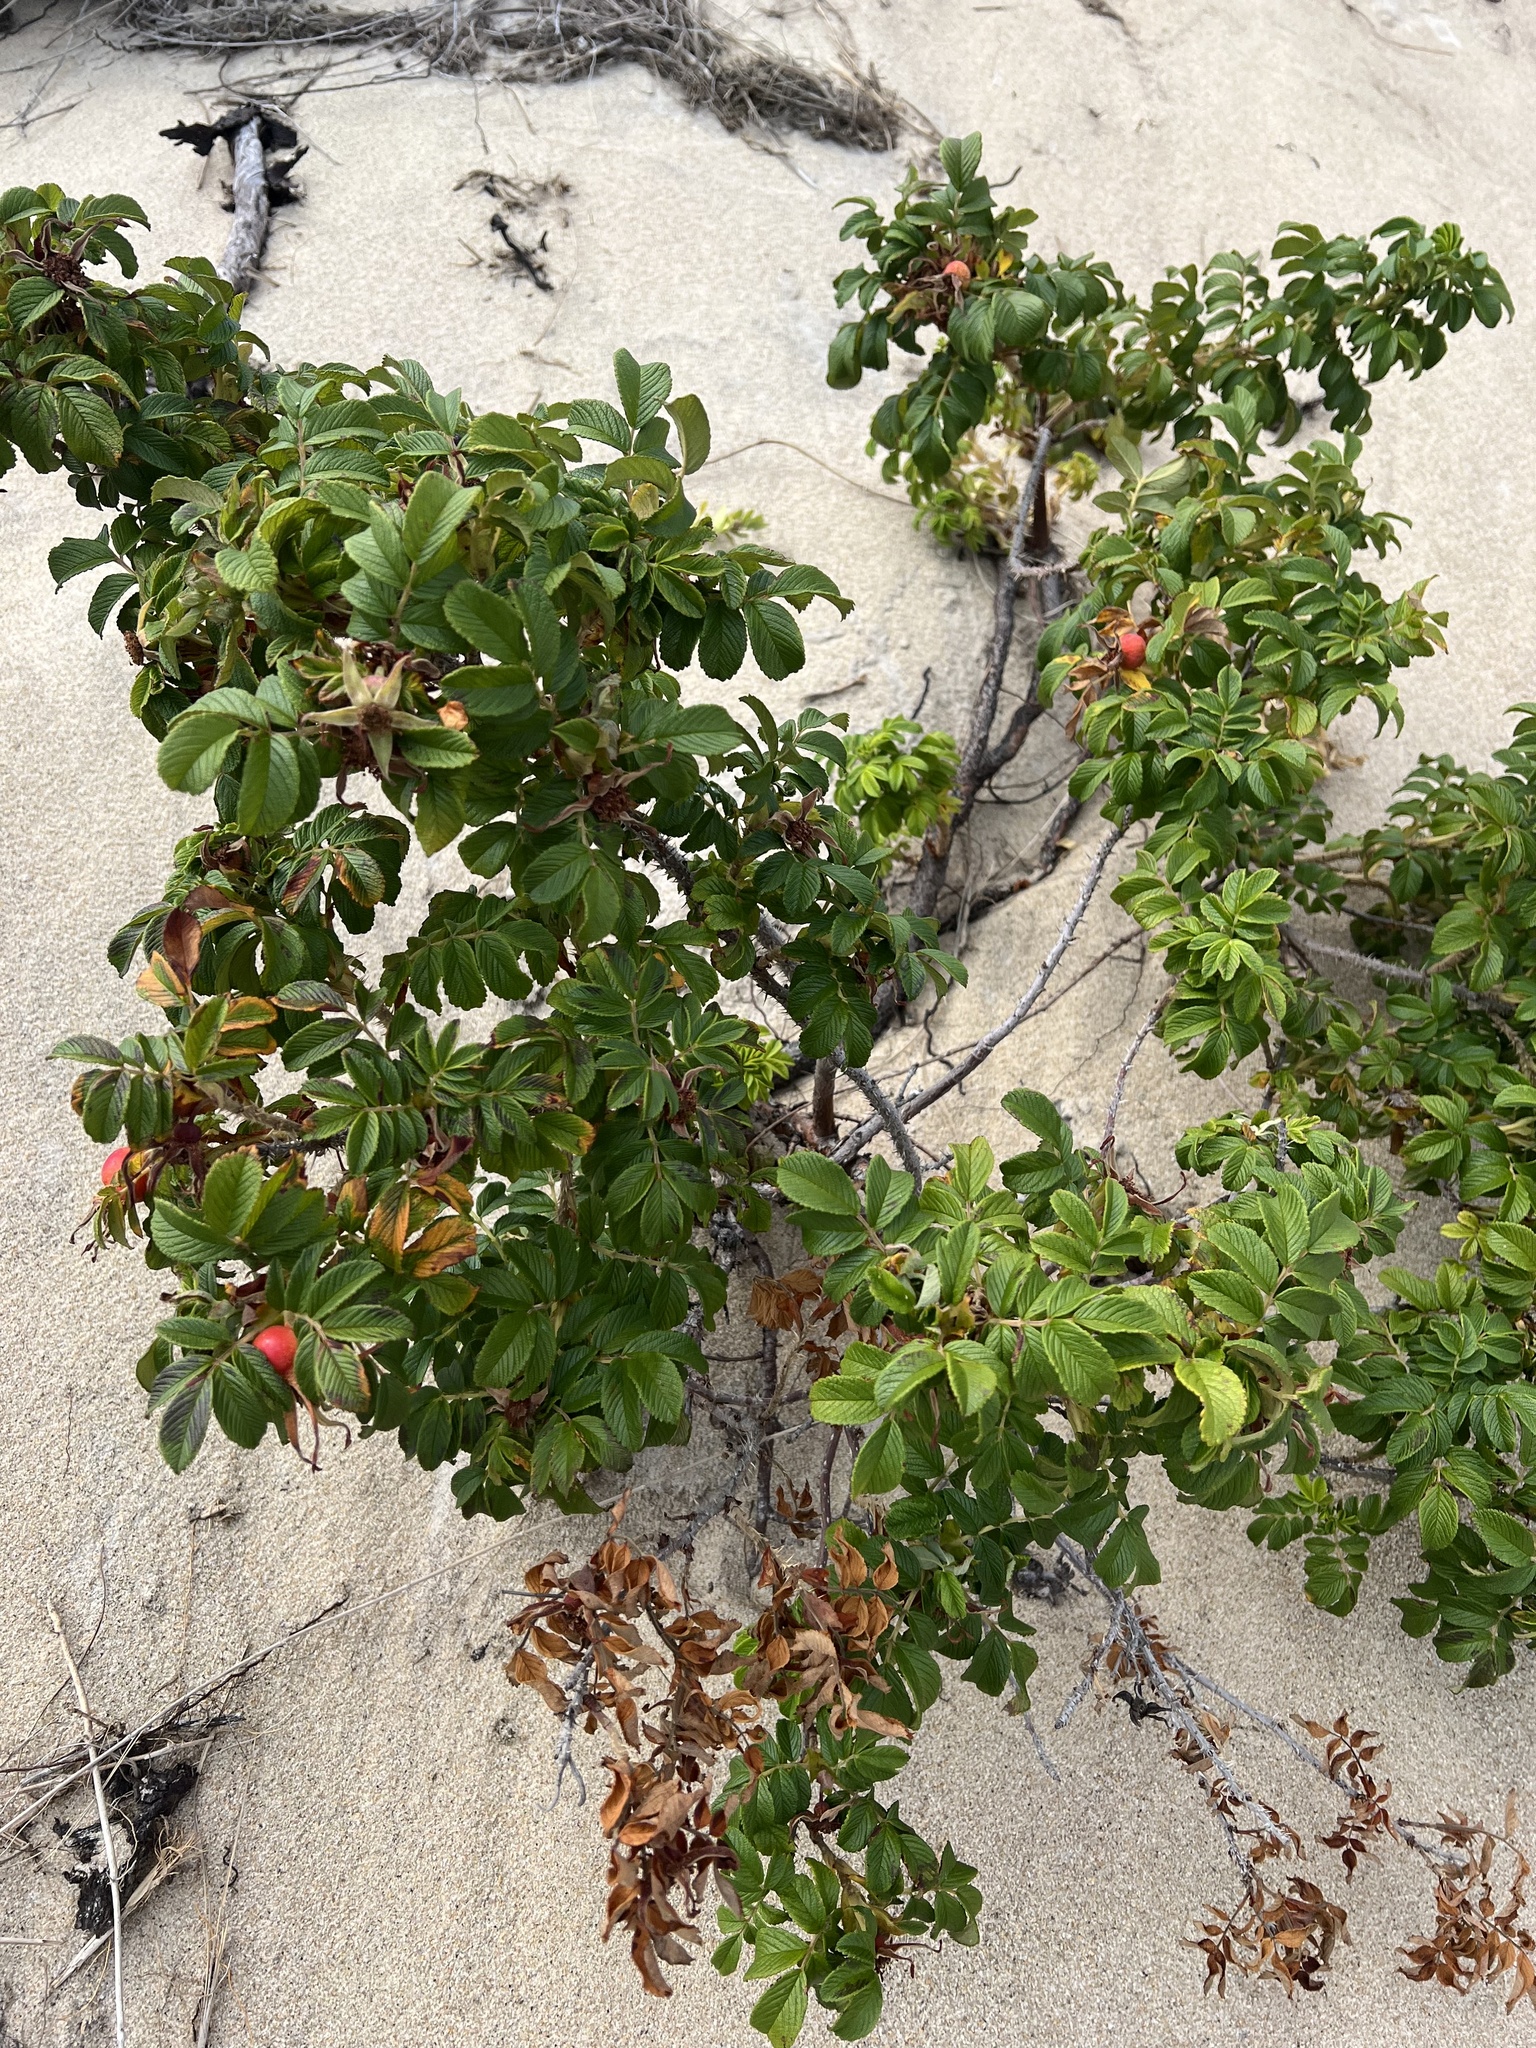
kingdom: Plantae
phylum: Tracheophyta
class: Magnoliopsida
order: Rosales
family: Rosaceae
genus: Rosa
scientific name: Rosa rugosa
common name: Japanese rose
